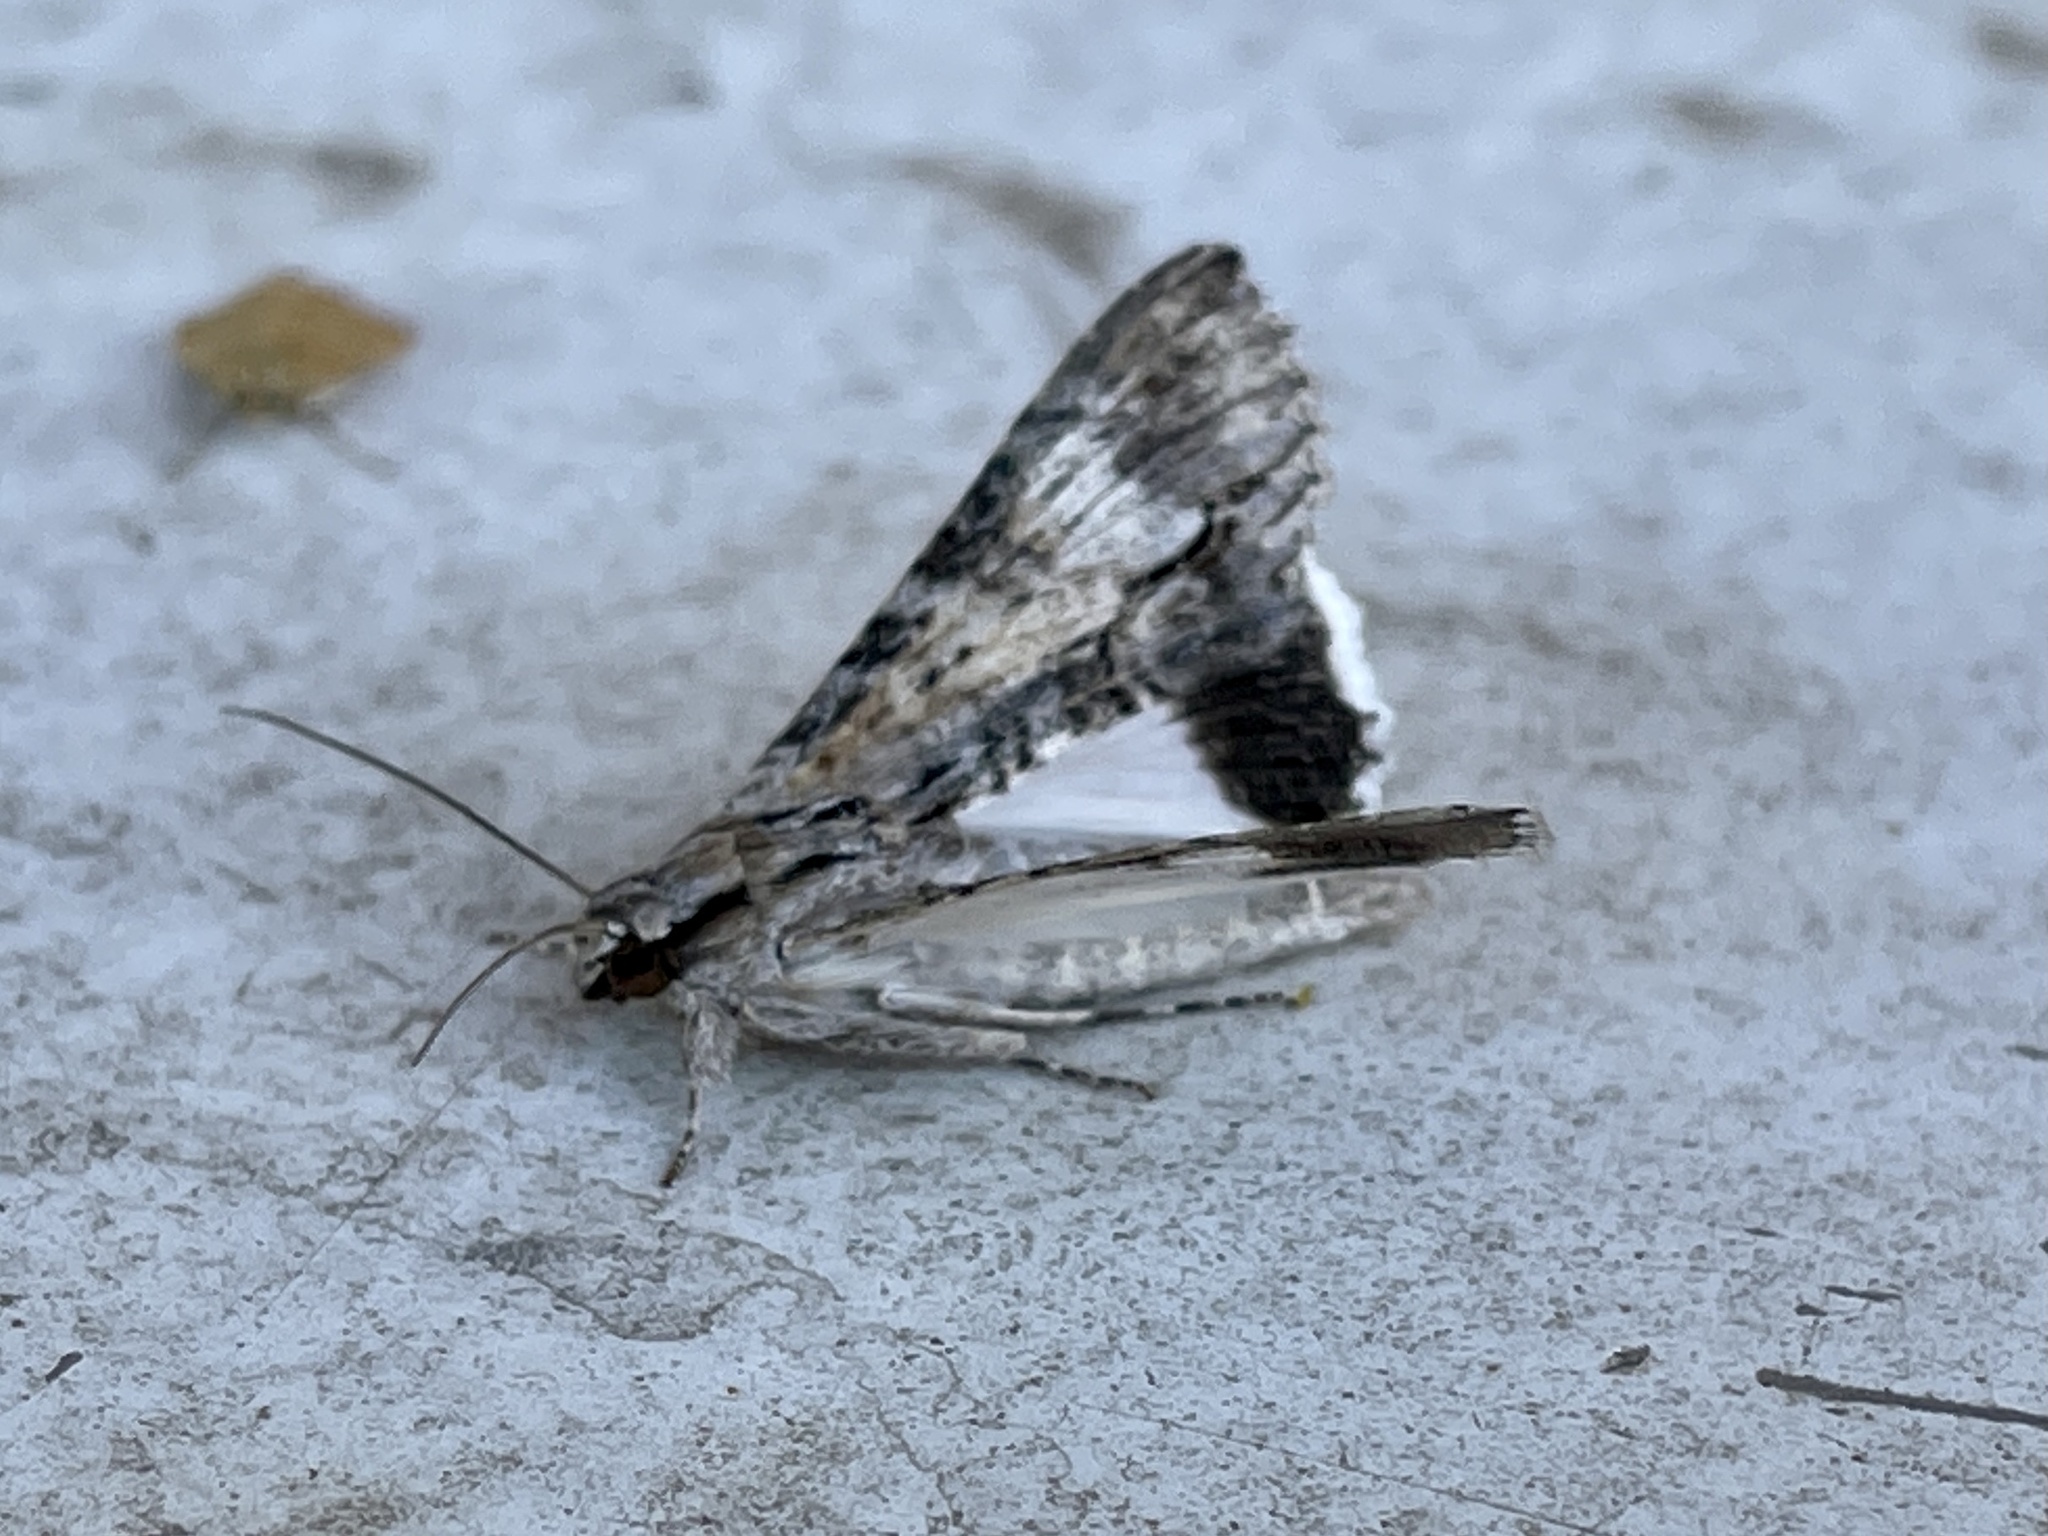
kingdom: Animalia
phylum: Arthropoda
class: Insecta
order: Lepidoptera
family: Erebidae
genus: Melipotis
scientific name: Melipotis acontioides
